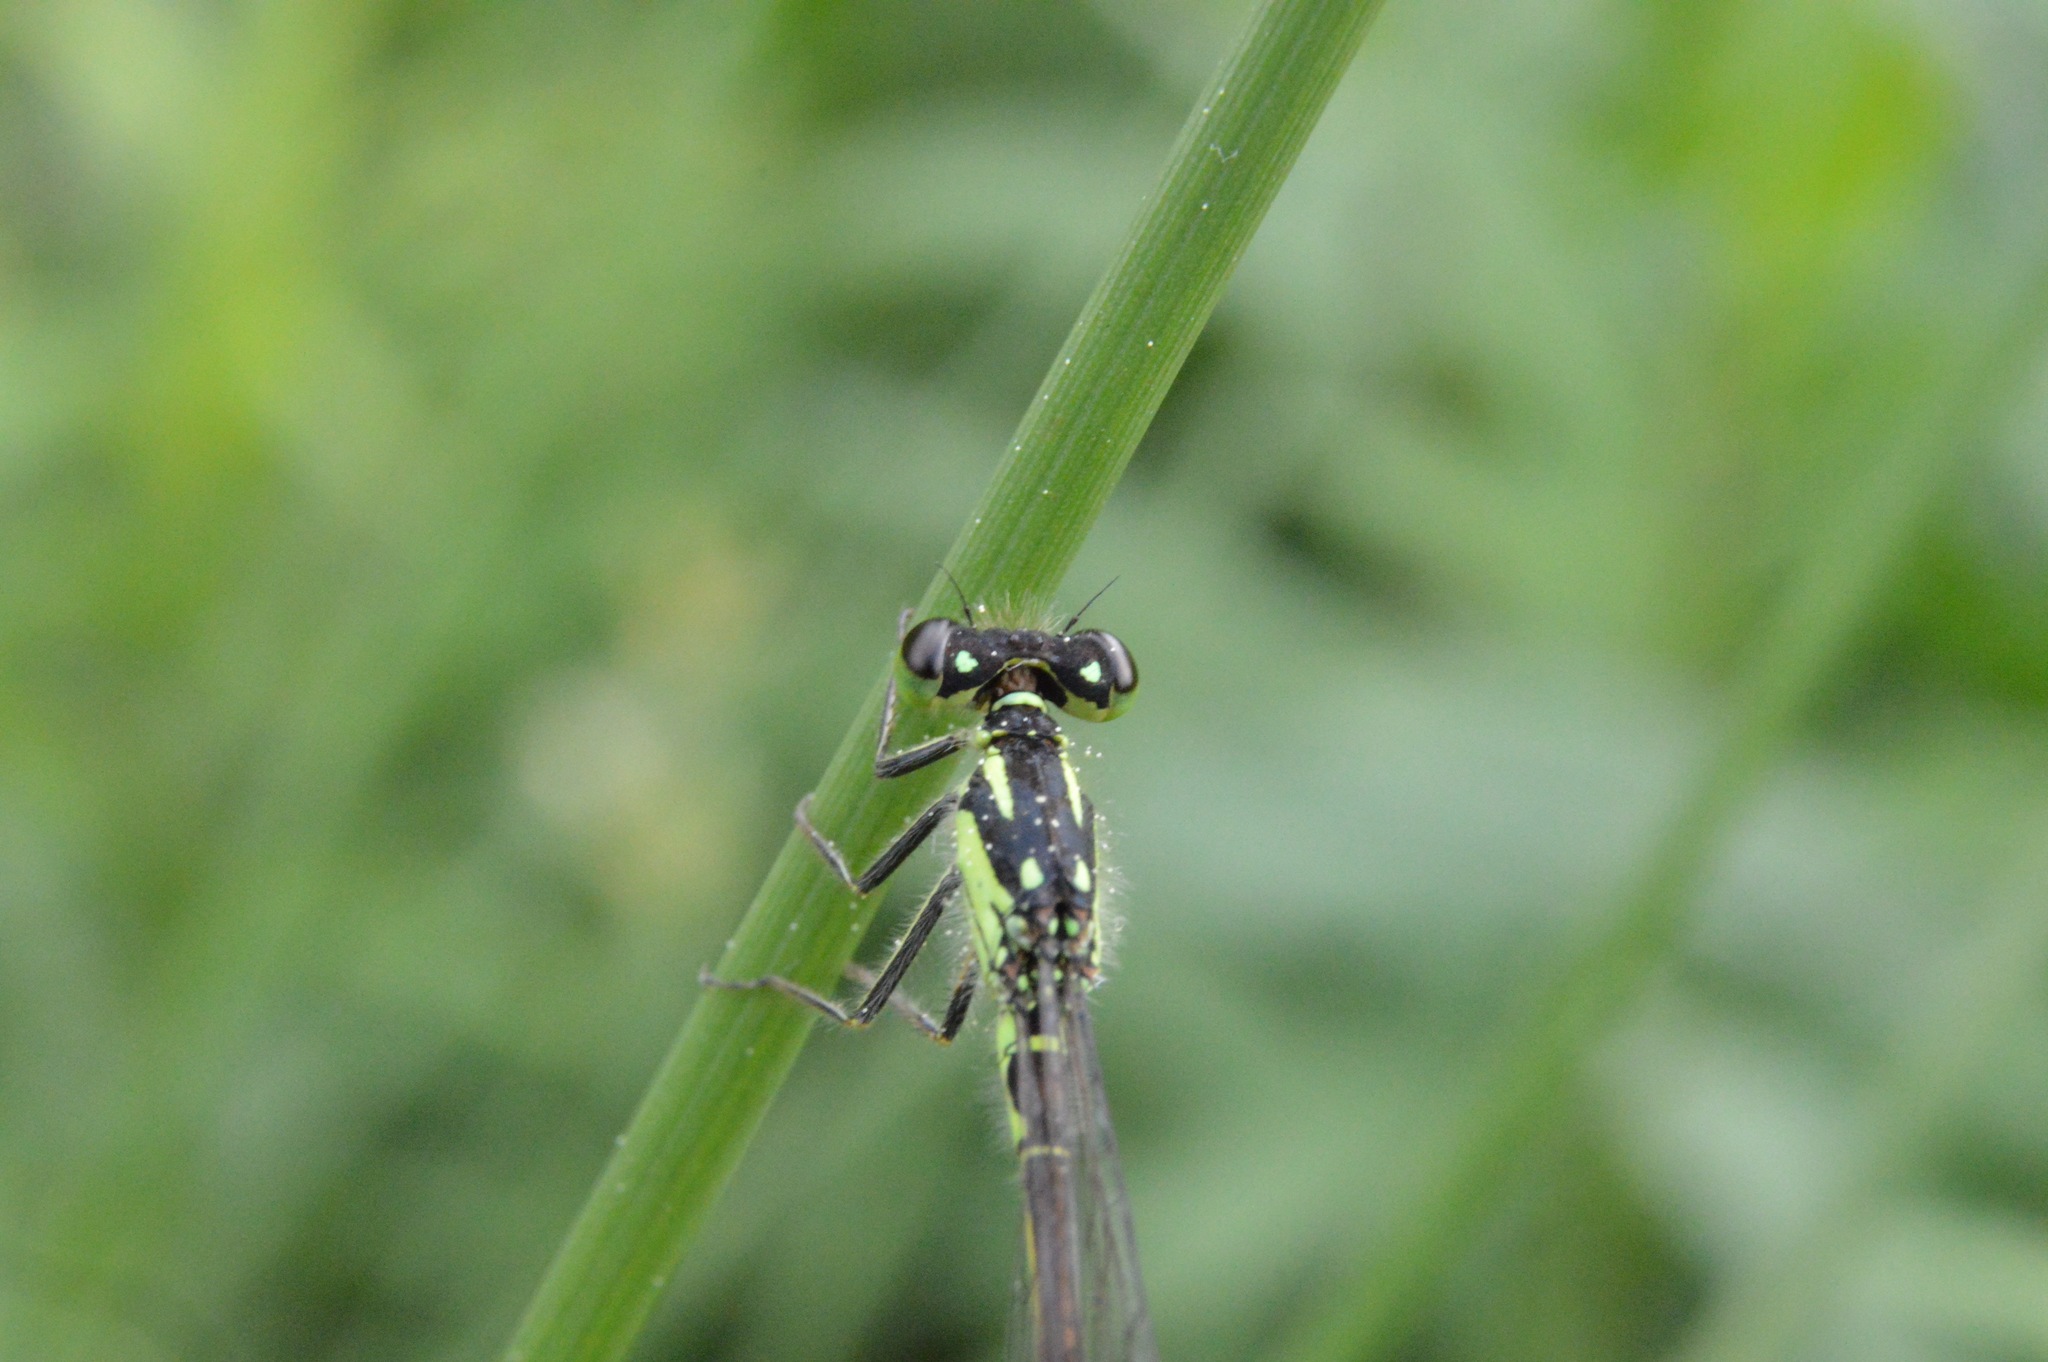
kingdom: Animalia
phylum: Arthropoda
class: Insecta
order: Odonata
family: Coenagrionidae
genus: Ischnura
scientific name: Ischnura posita
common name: Fragile forktail
